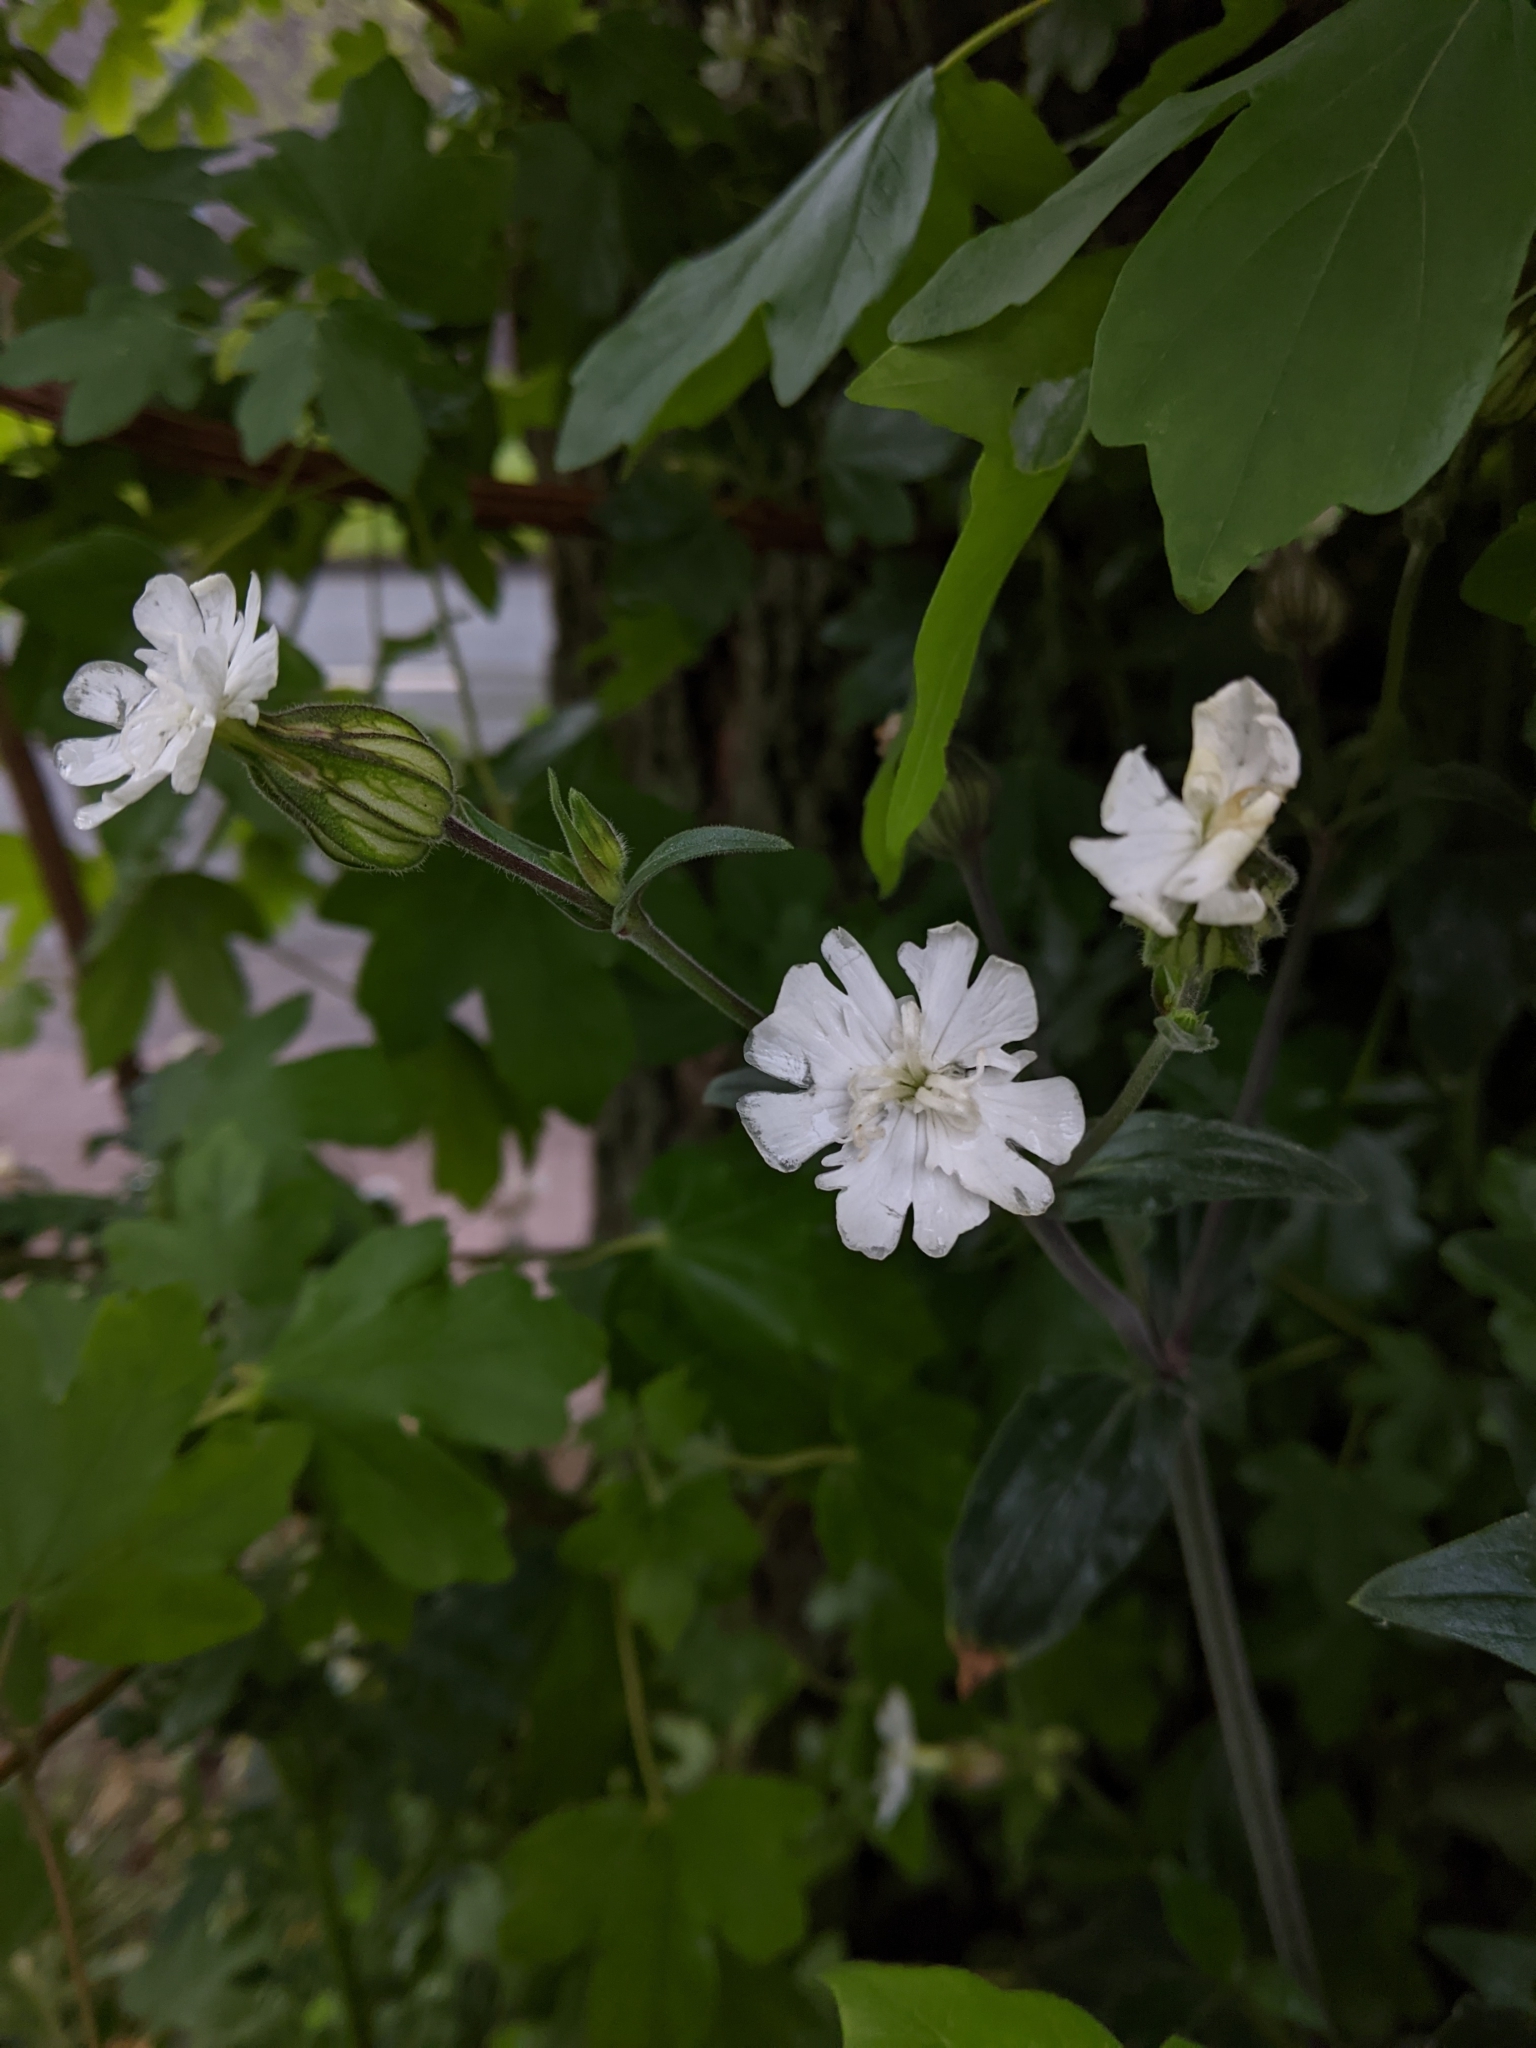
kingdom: Plantae
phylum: Tracheophyta
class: Magnoliopsida
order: Caryophyllales
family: Caryophyllaceae
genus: Silene
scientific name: Silene latifolia
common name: White campion
